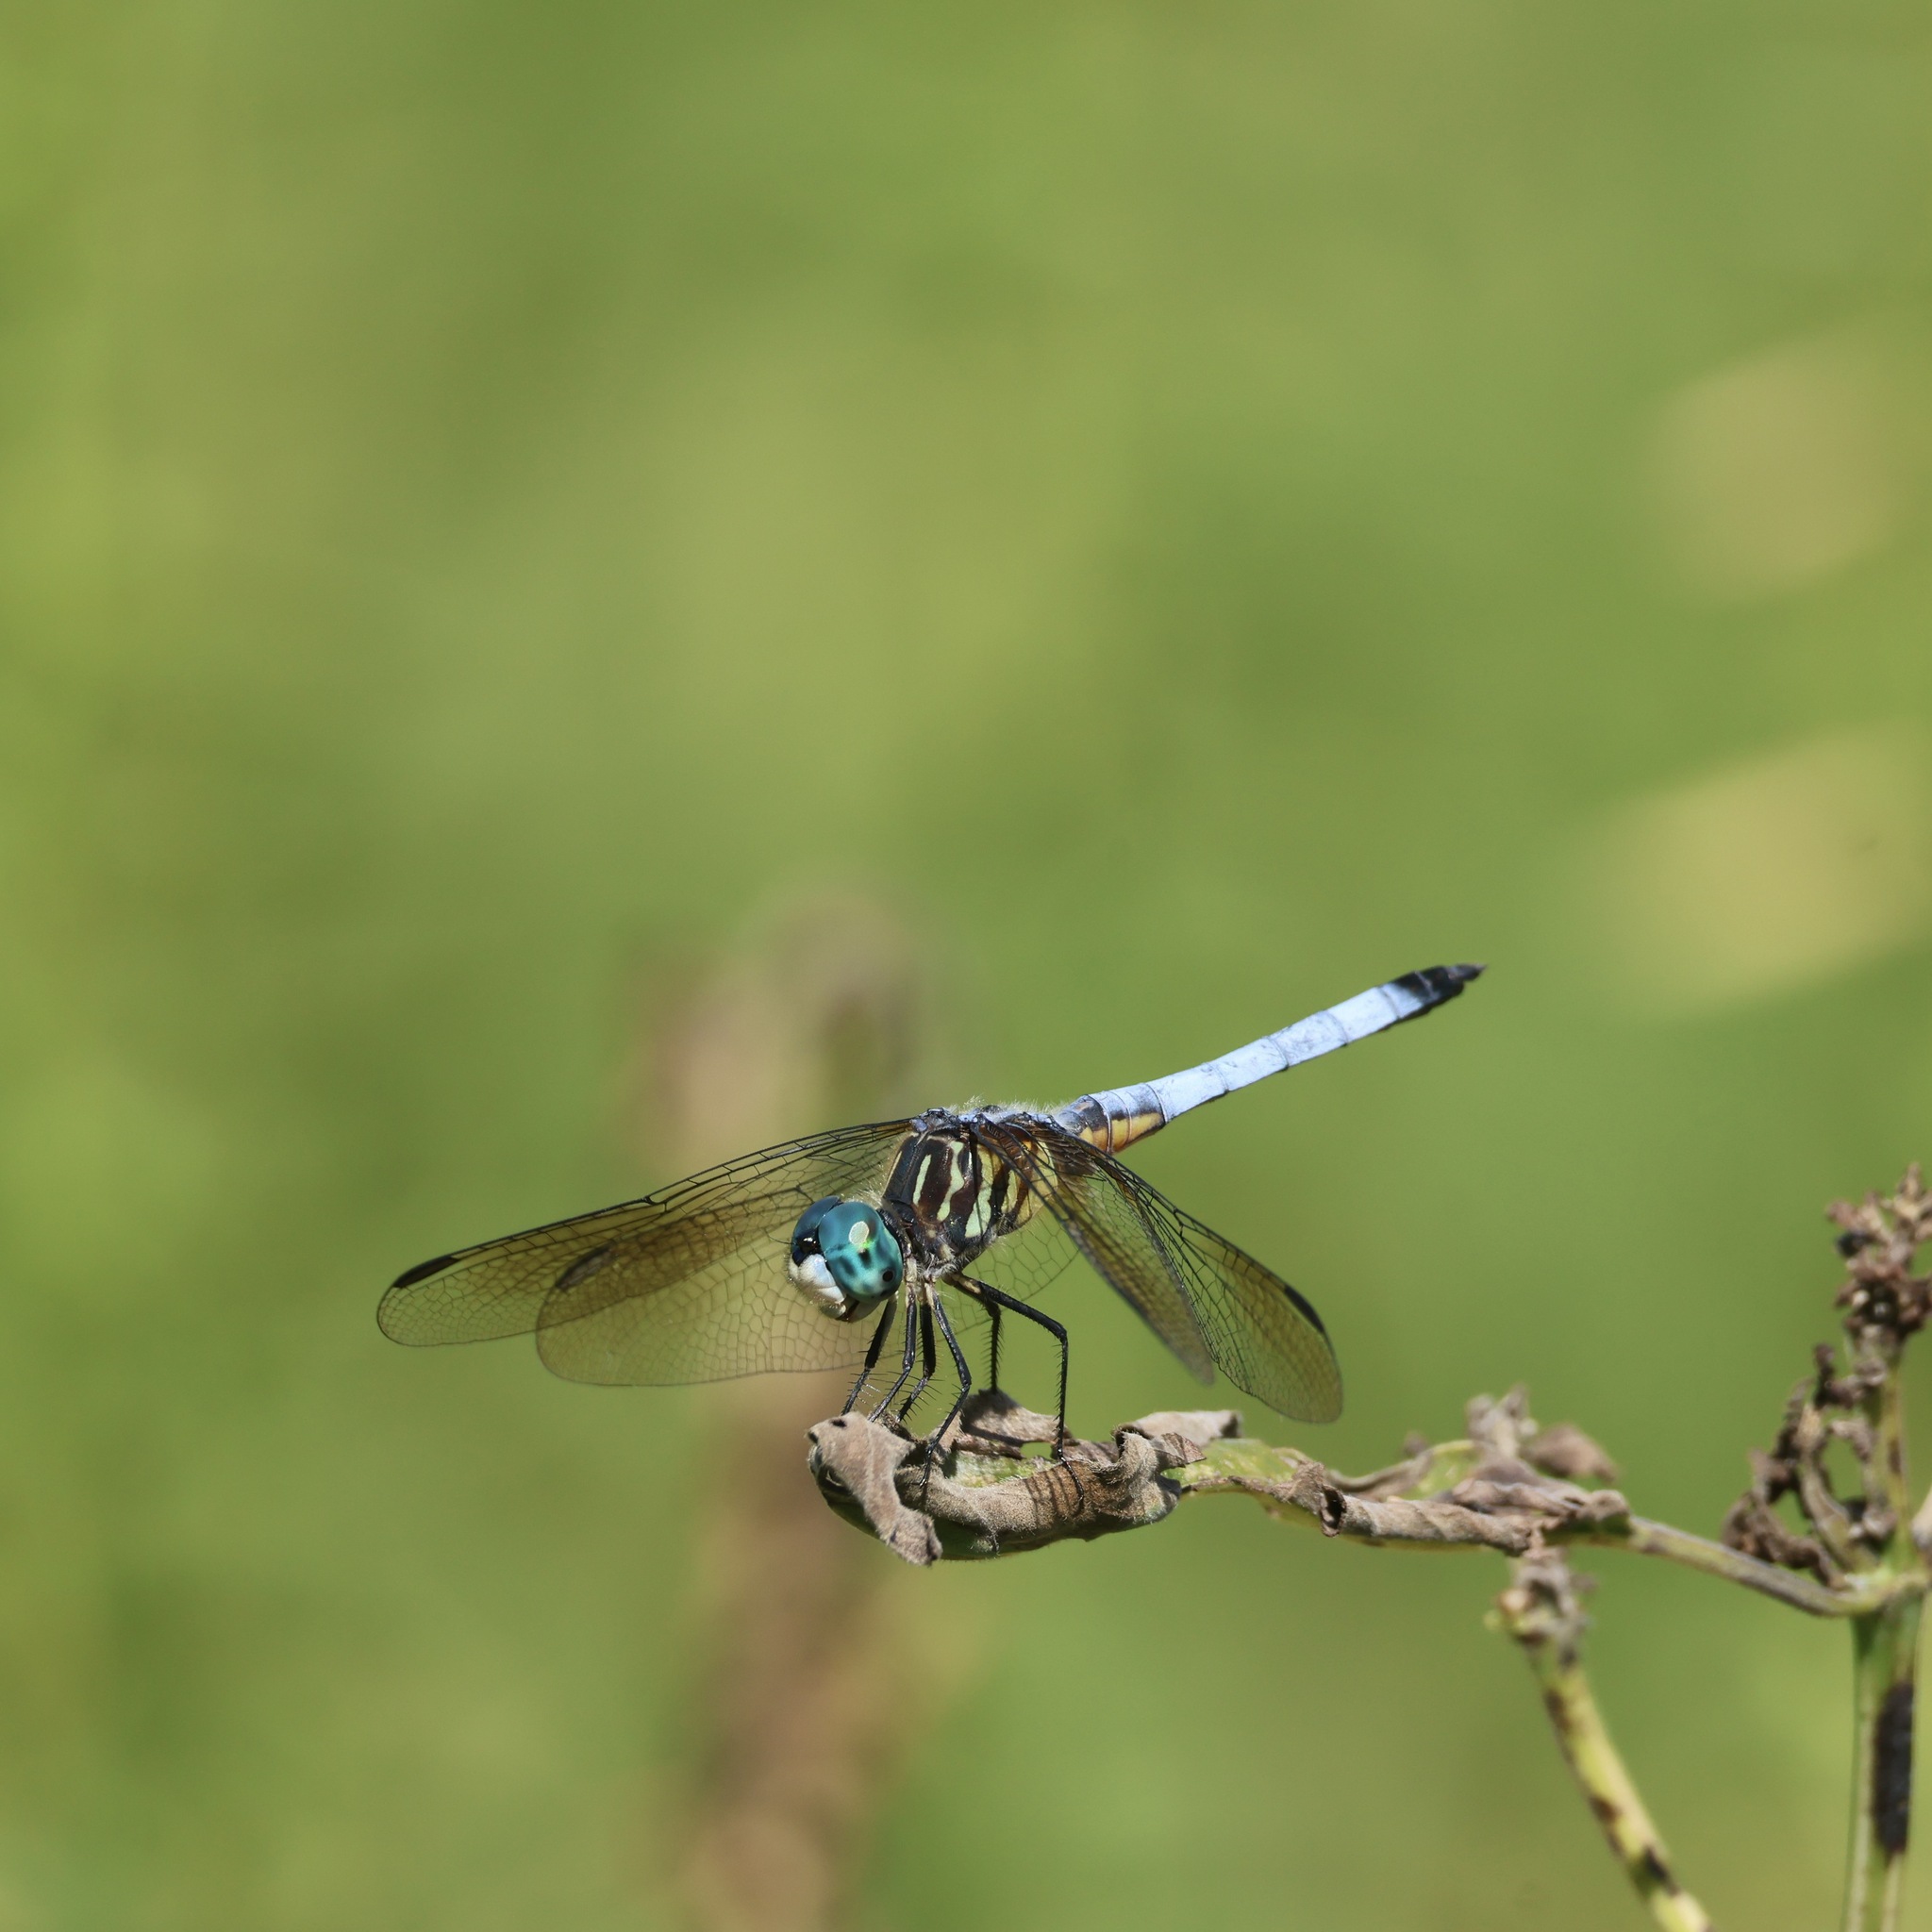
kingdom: Animalia
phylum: Arthropoda
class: Insecta
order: Odonata
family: Libellulidae
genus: Pachydiplax
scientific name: Pachydiplax longipennis
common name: Blue dasher
